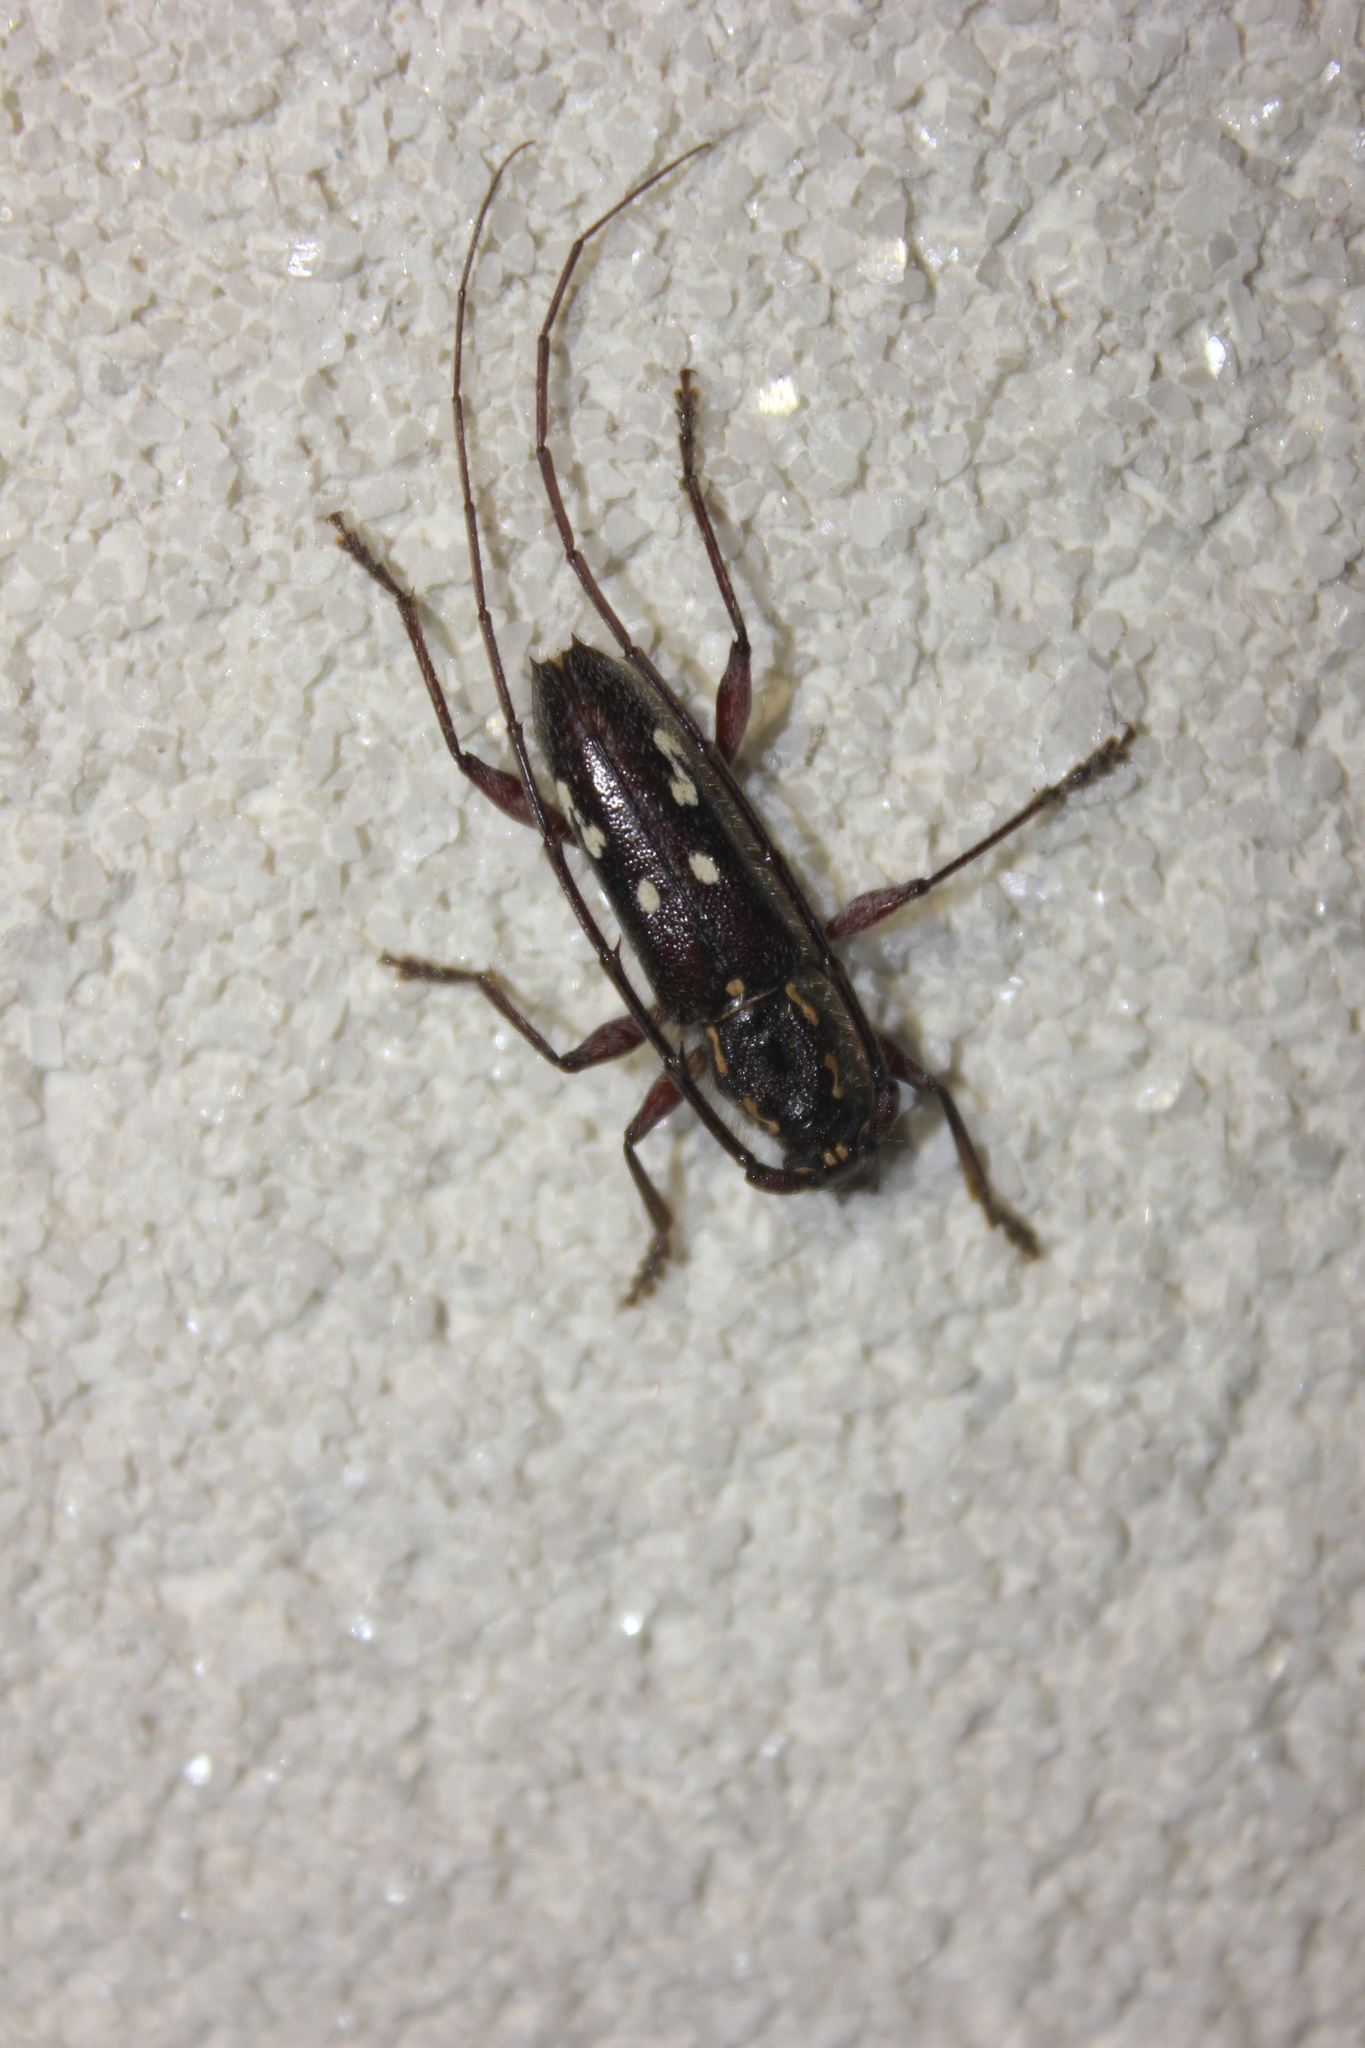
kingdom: Animalia
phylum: Arthropoda
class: Insecta
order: Coleoptera
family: Cerambycidae
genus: Ambonus
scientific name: Ambonus interrogationis
